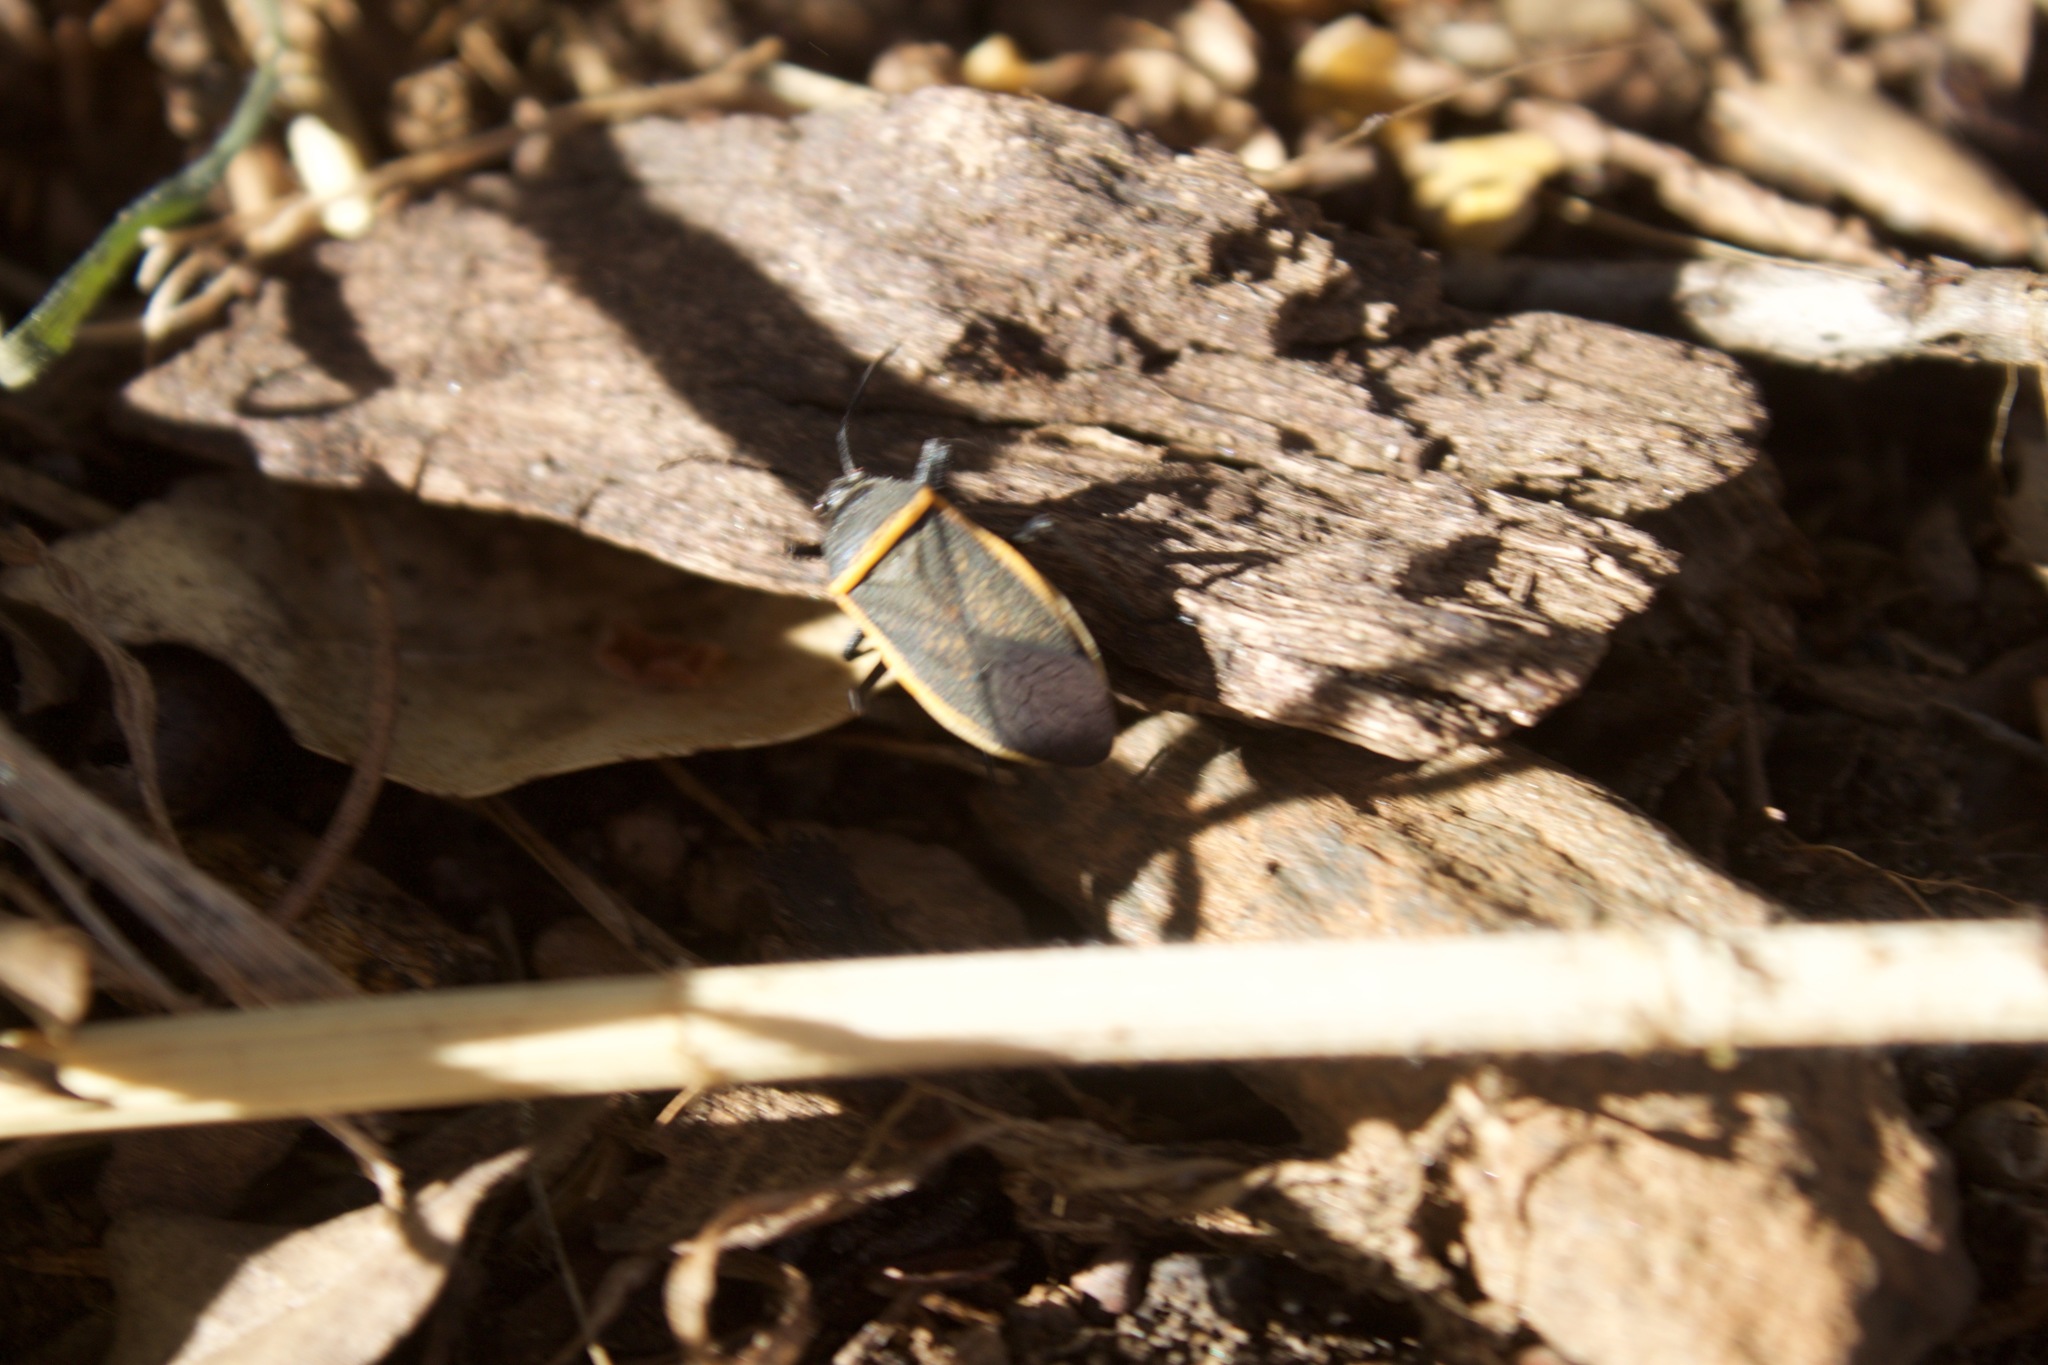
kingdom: Animalia
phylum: Arthropoda
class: Insecta
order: Hemiptera
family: Largidae
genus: Largus
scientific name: Largus californicus
